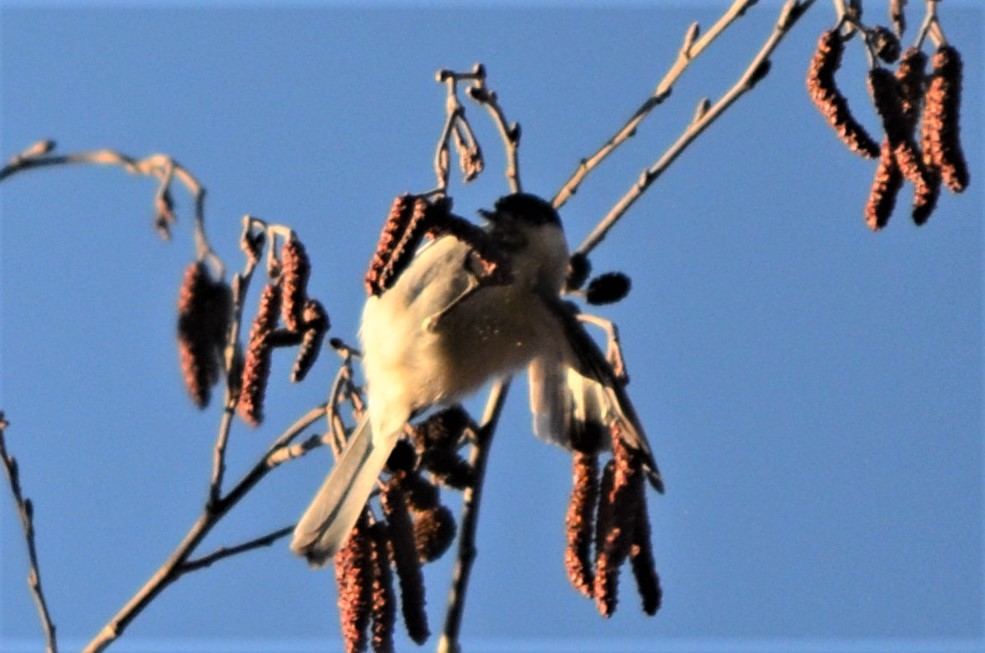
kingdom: Animalia
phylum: Chordata
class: Aves
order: Passeriformes
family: Paridae
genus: Poecile
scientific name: Poecile montanus
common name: Willow tit
